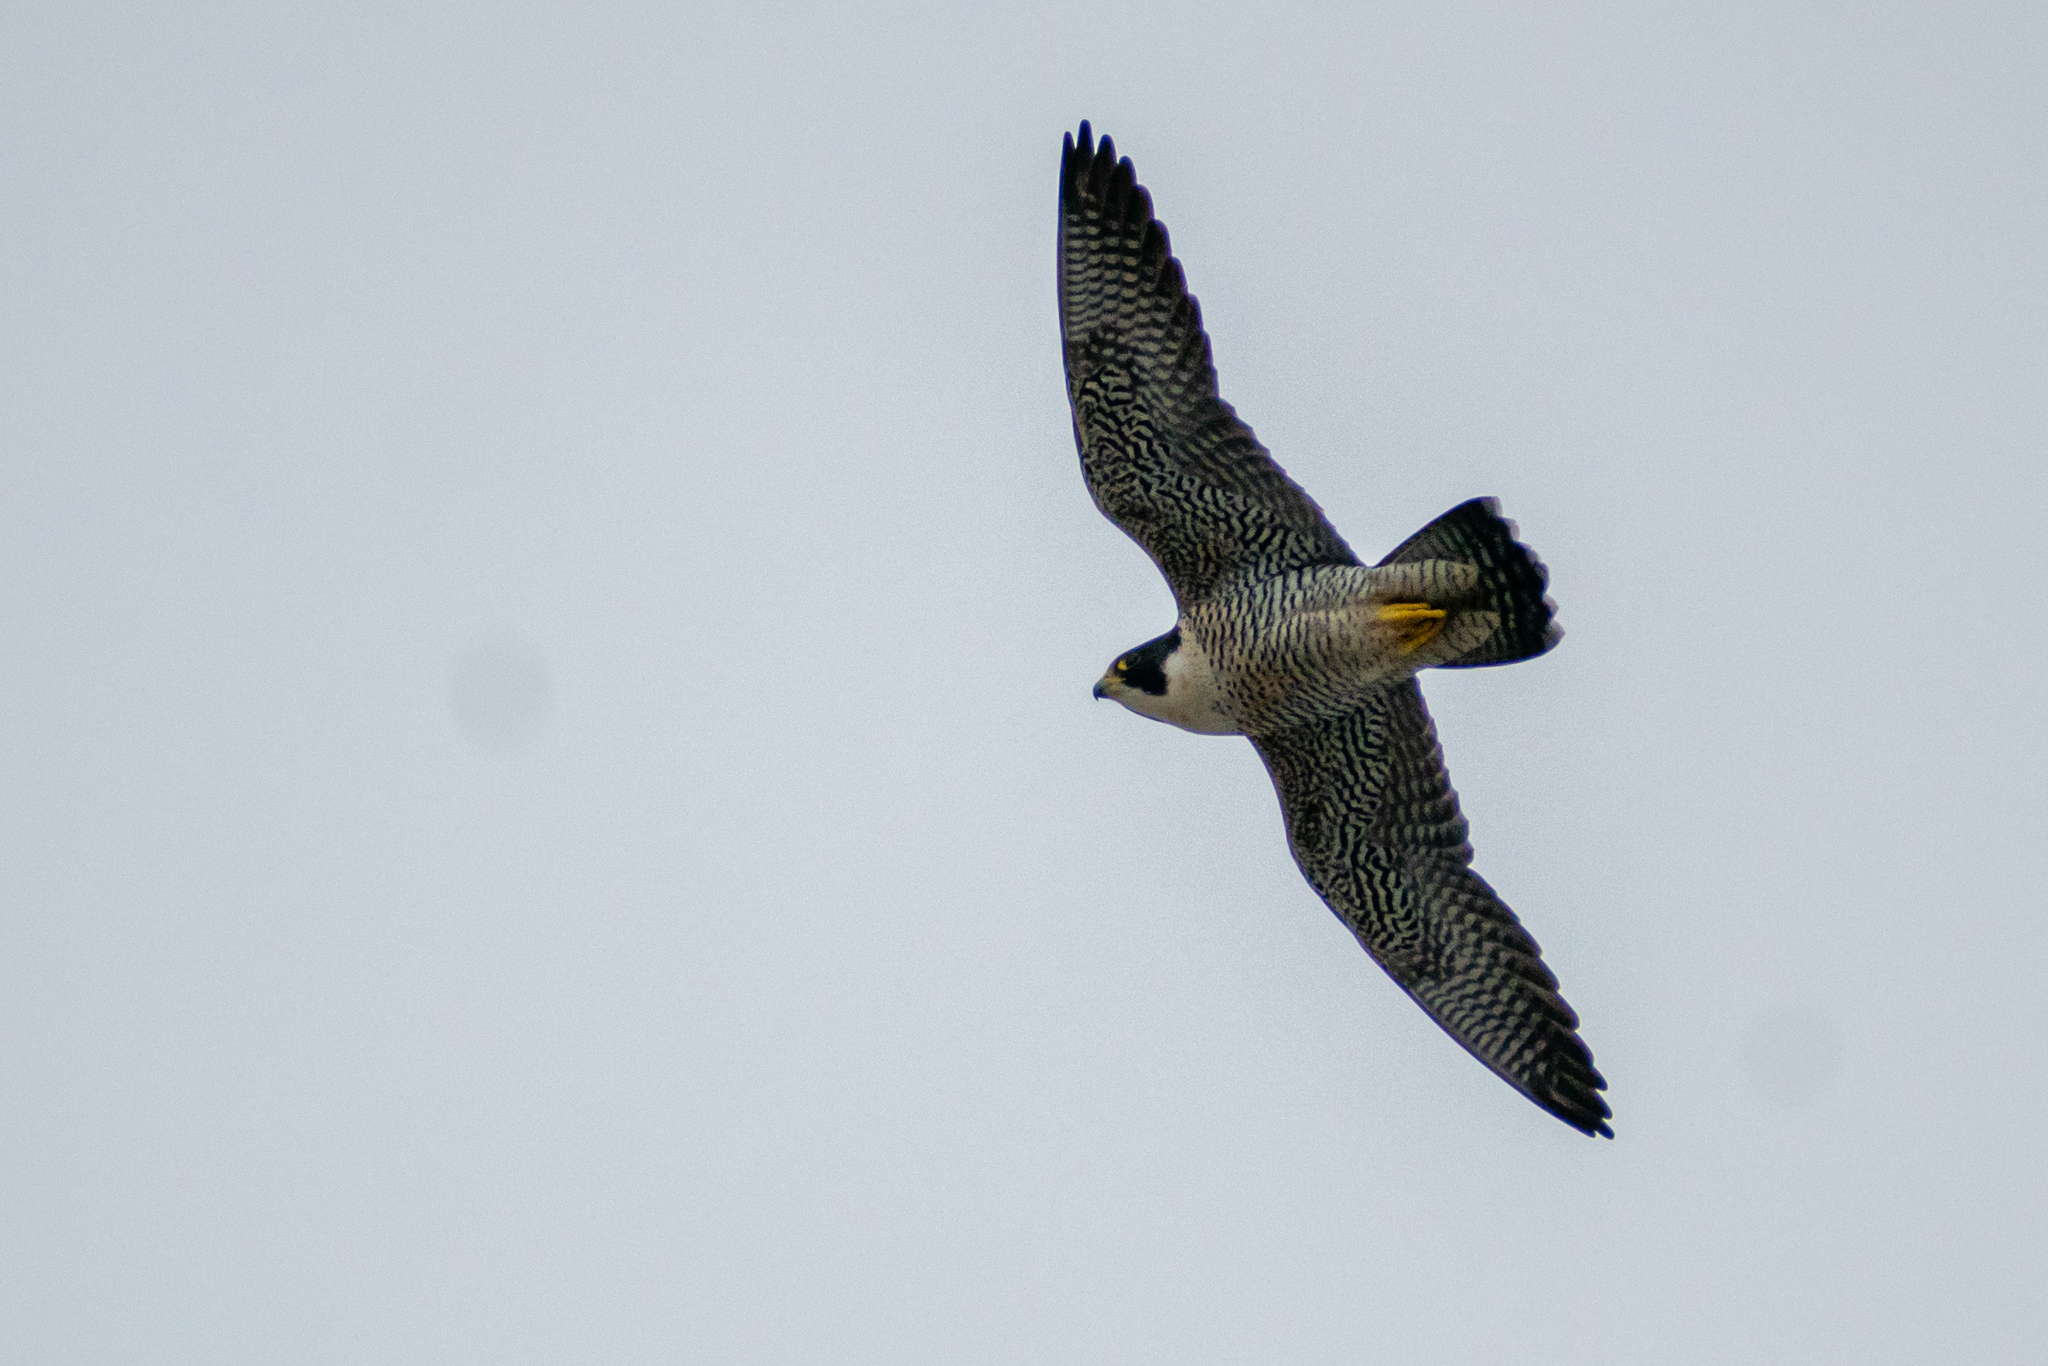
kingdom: Animalia
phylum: Chordata
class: Aves
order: Falconiformes
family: Falconidae
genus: Falco
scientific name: Falco peregrinus
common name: Peregrine falcon
